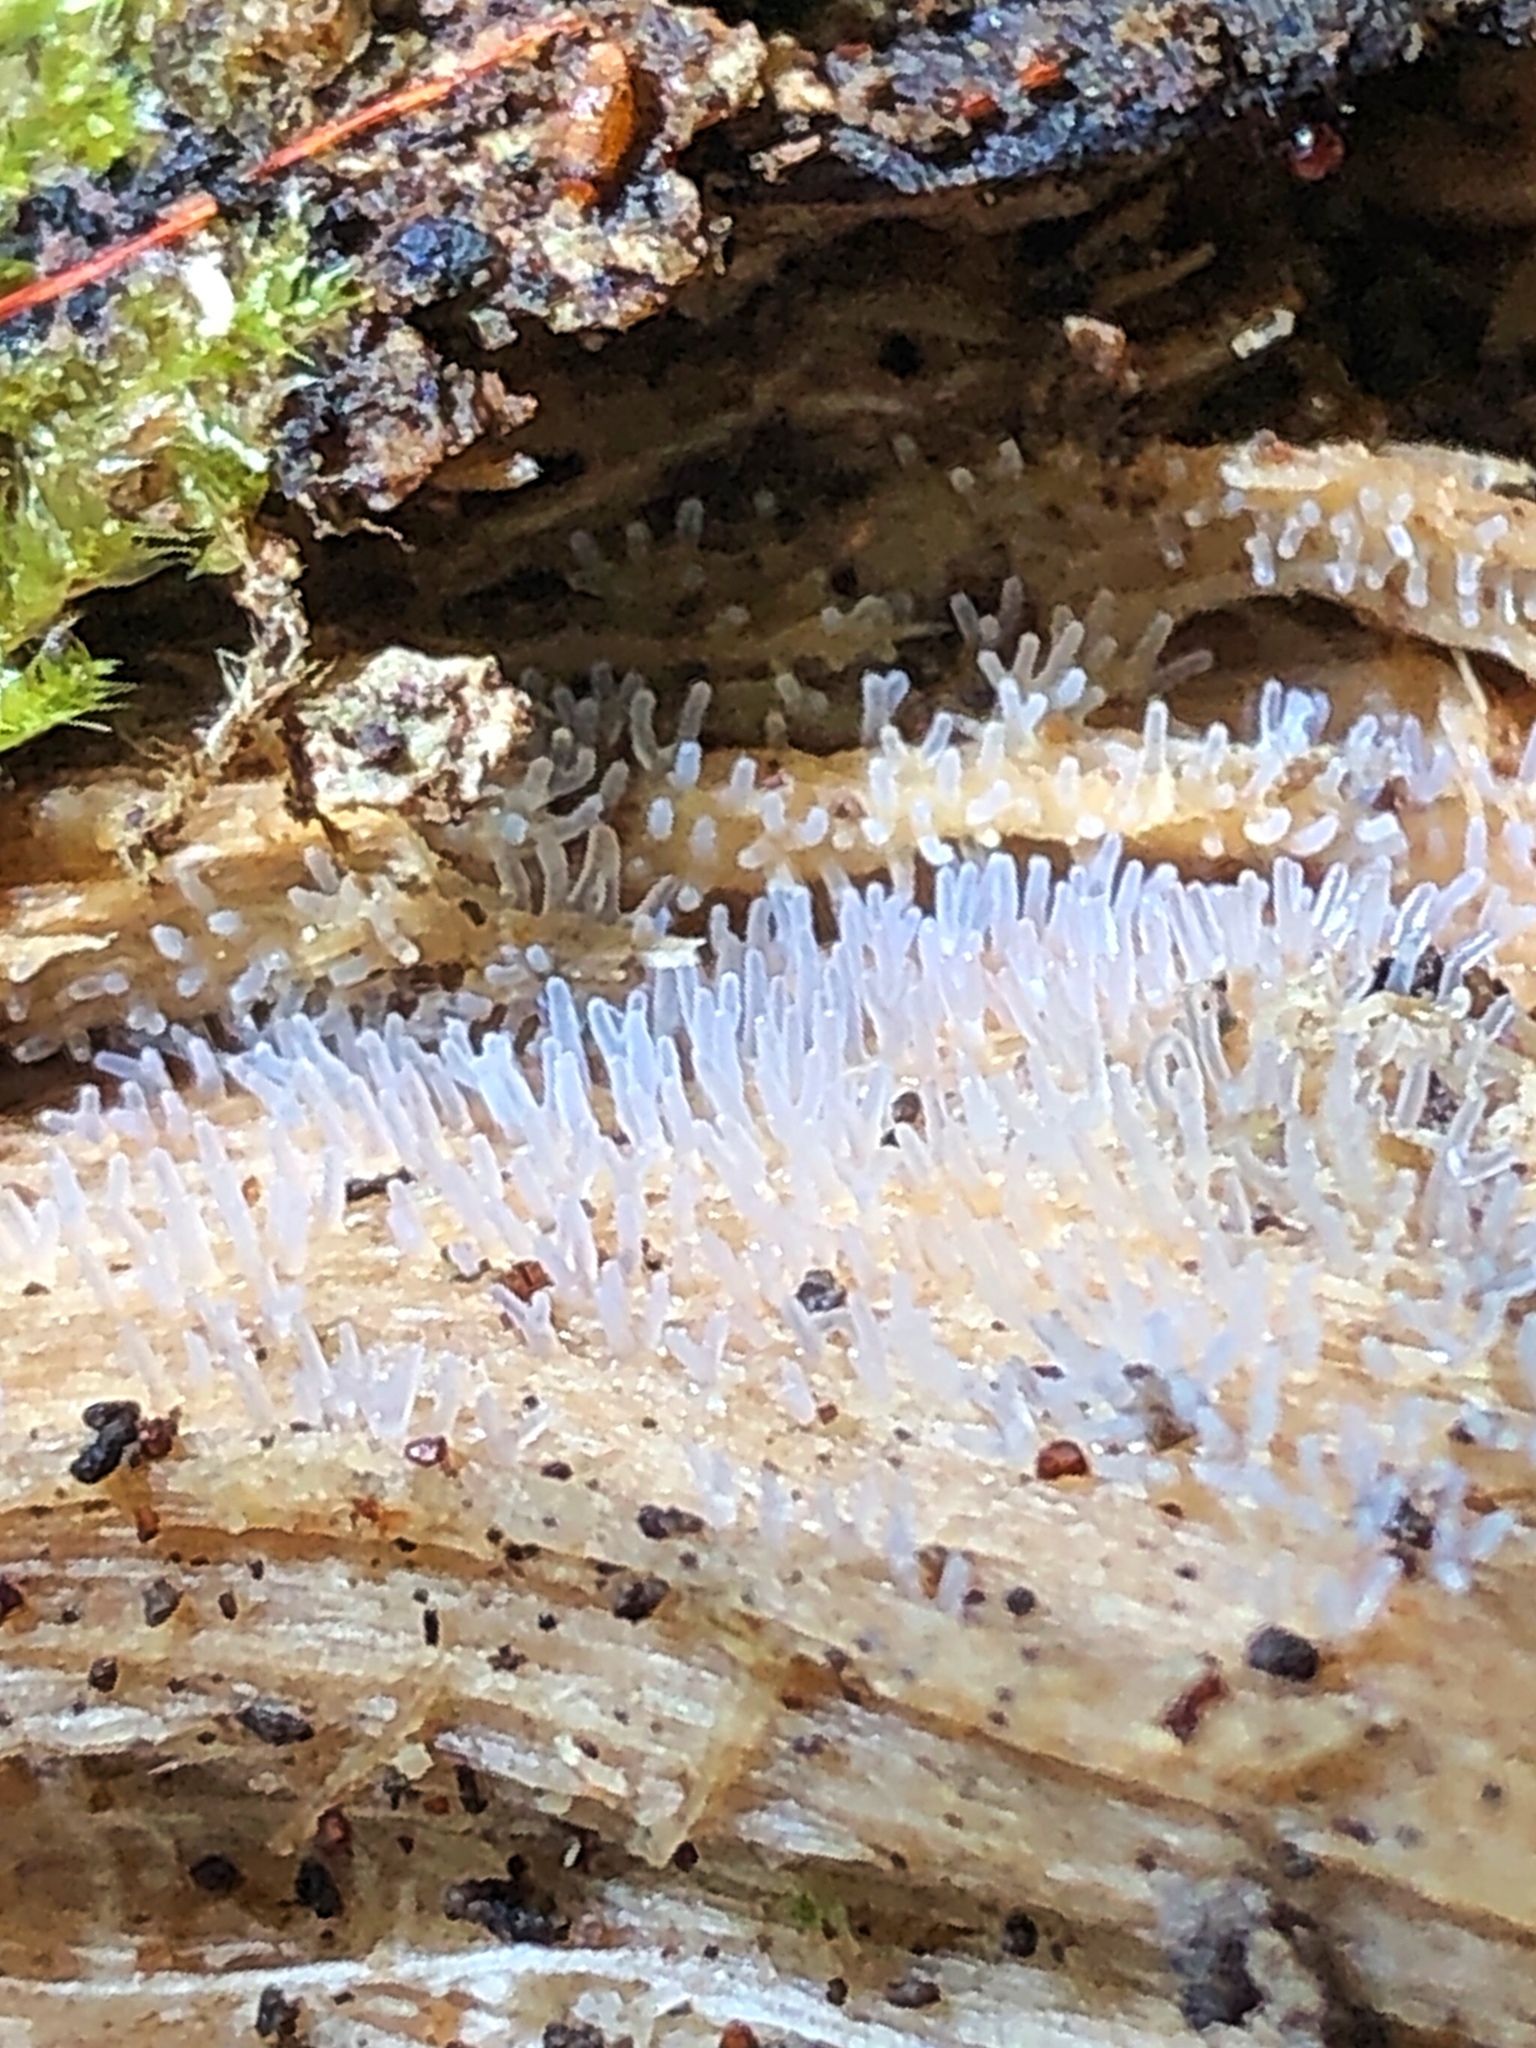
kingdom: Protozoa
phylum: Mycetozoa
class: Protosteliomycetes
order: Ceratiomyxales
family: Ceratiomyxaceae
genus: Ceratiomyxa
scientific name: Ceratiomyxa fruticulosa
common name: Honeycomb coral slime mold
